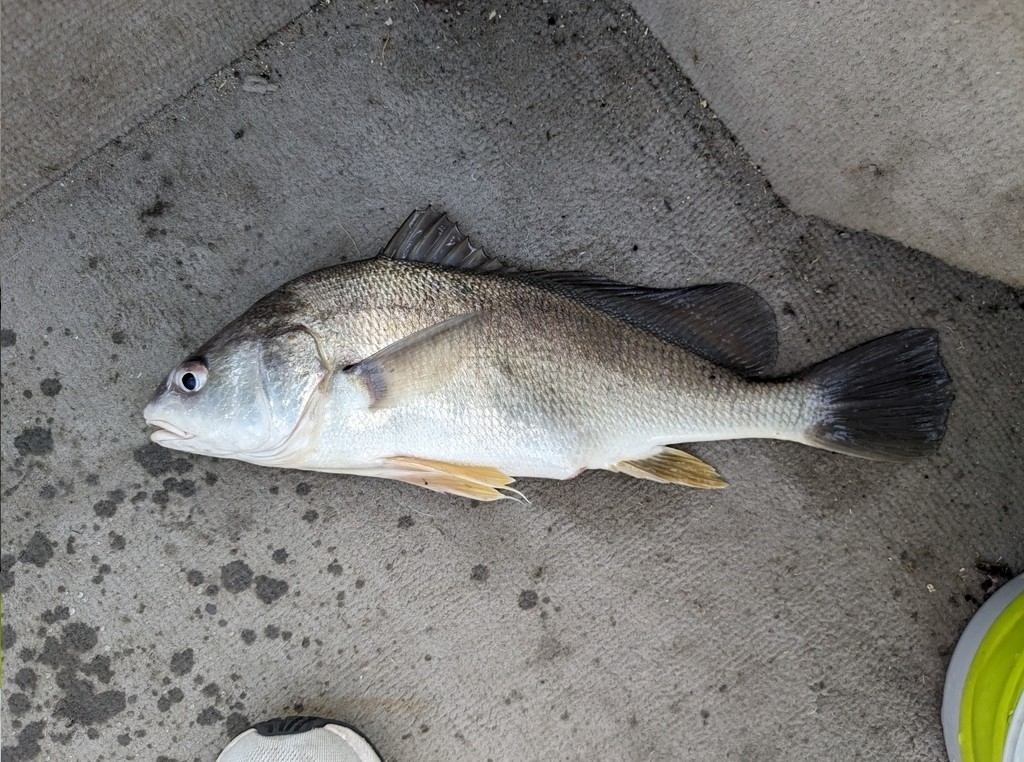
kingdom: Animalia
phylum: Chordata
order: Perciformes
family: Sciaenidae
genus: Aplodinotus
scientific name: Aplodinotus grunniens
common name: Freshwater drum
